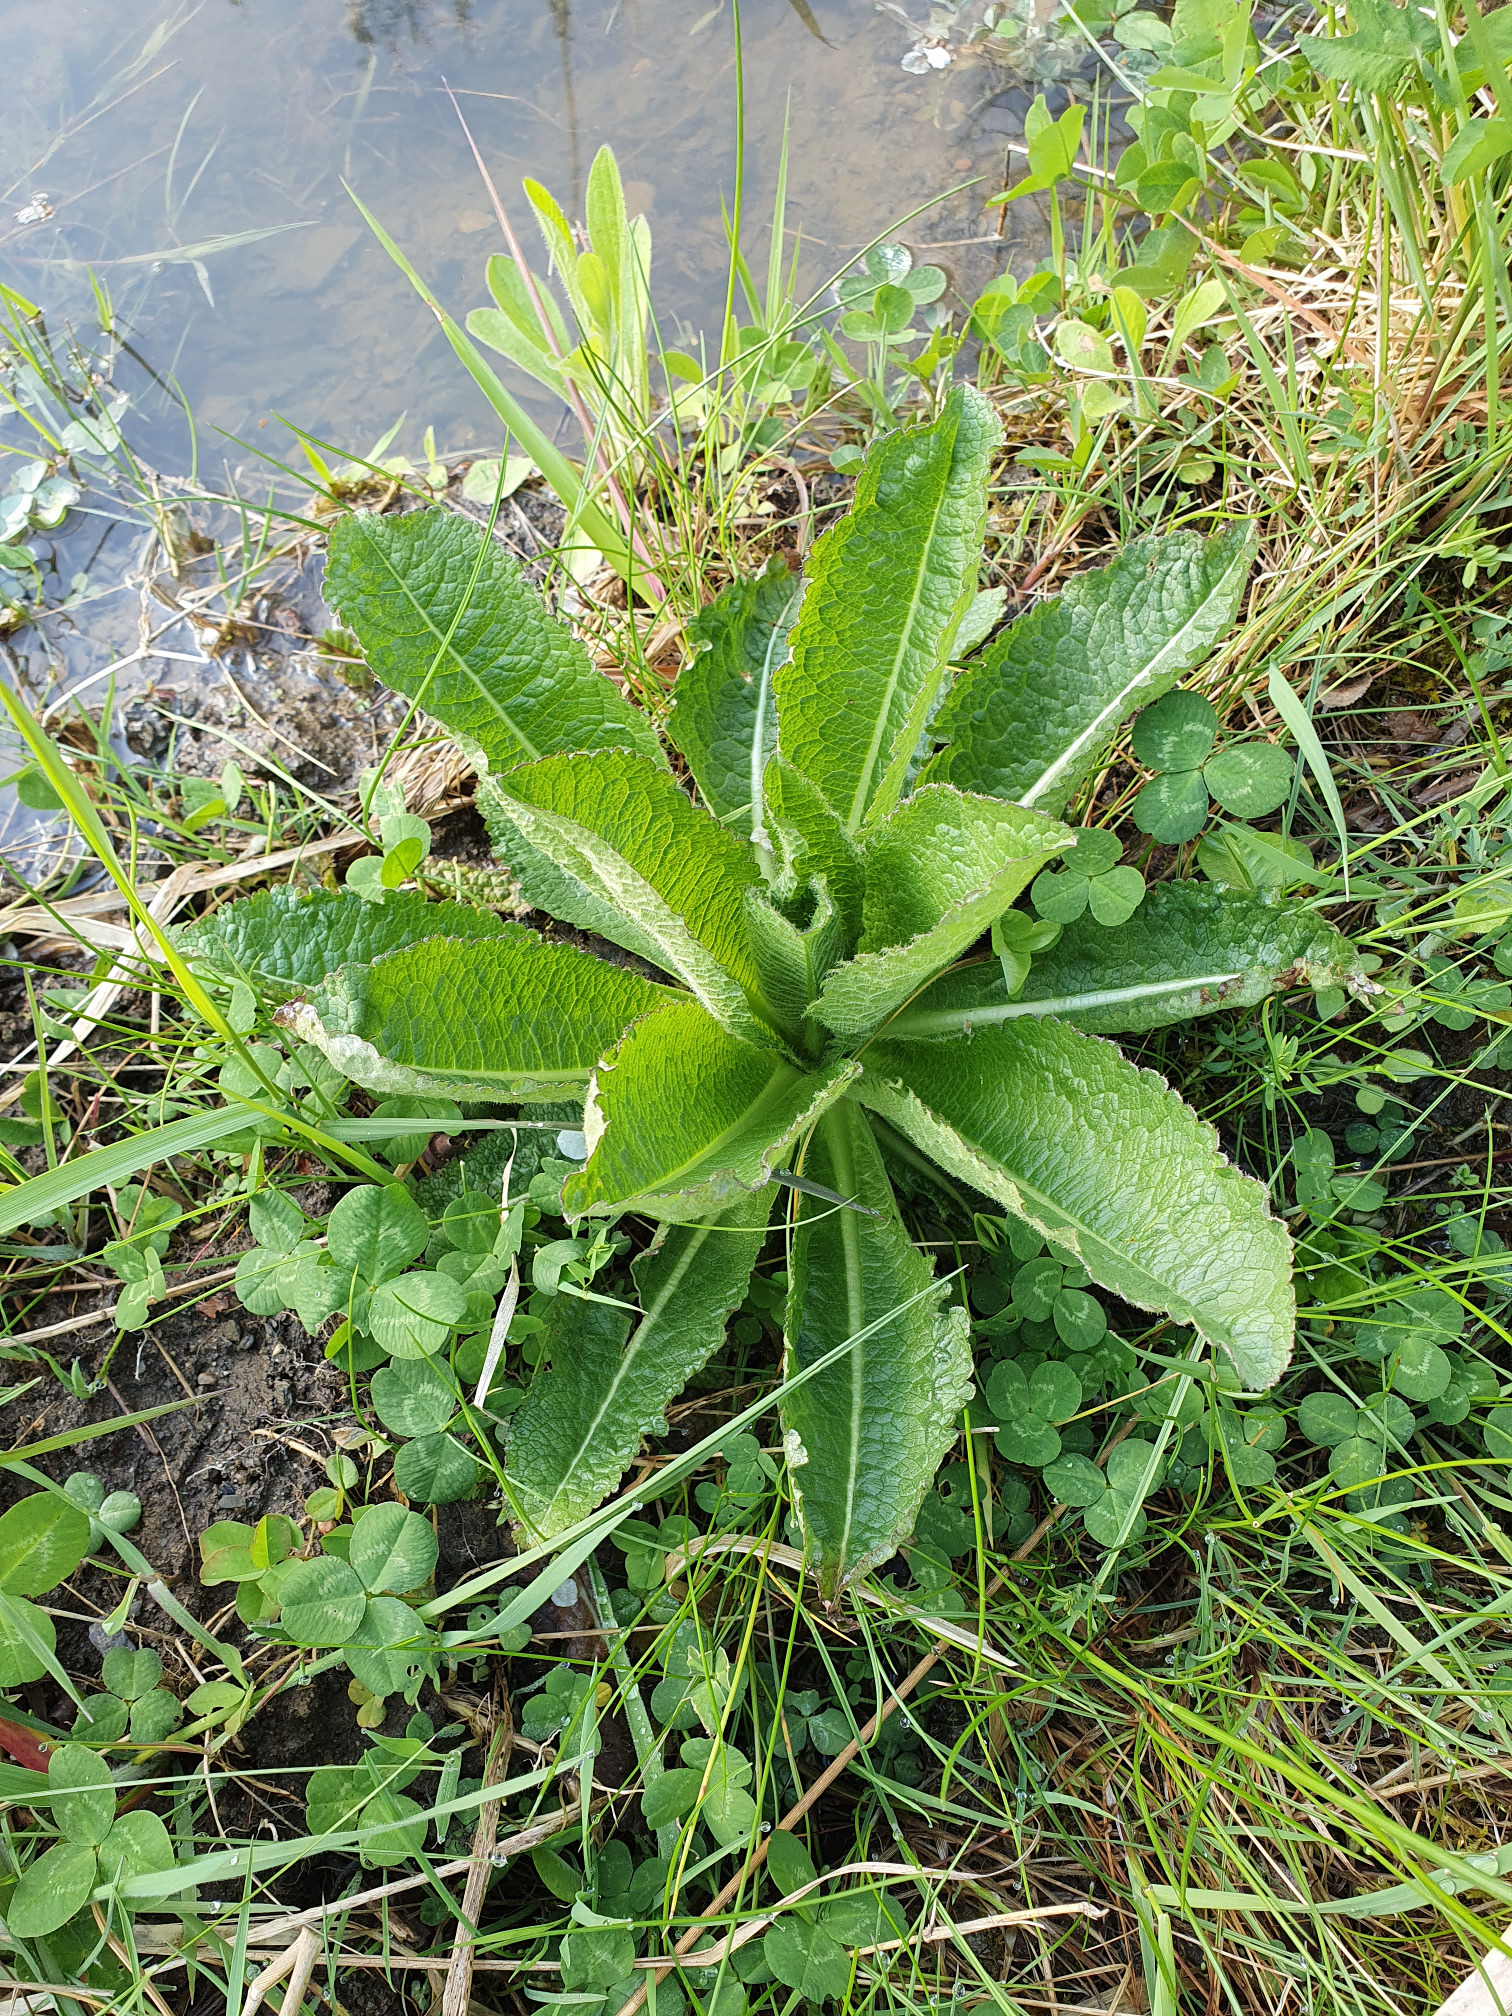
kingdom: Plantae
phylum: Tracheophyta
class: Magnoliopsida
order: Dipsacales
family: Caprifoliaceae
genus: Dipsacus
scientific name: Dipsacus laciniatus
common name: Cut-leaved teasel
